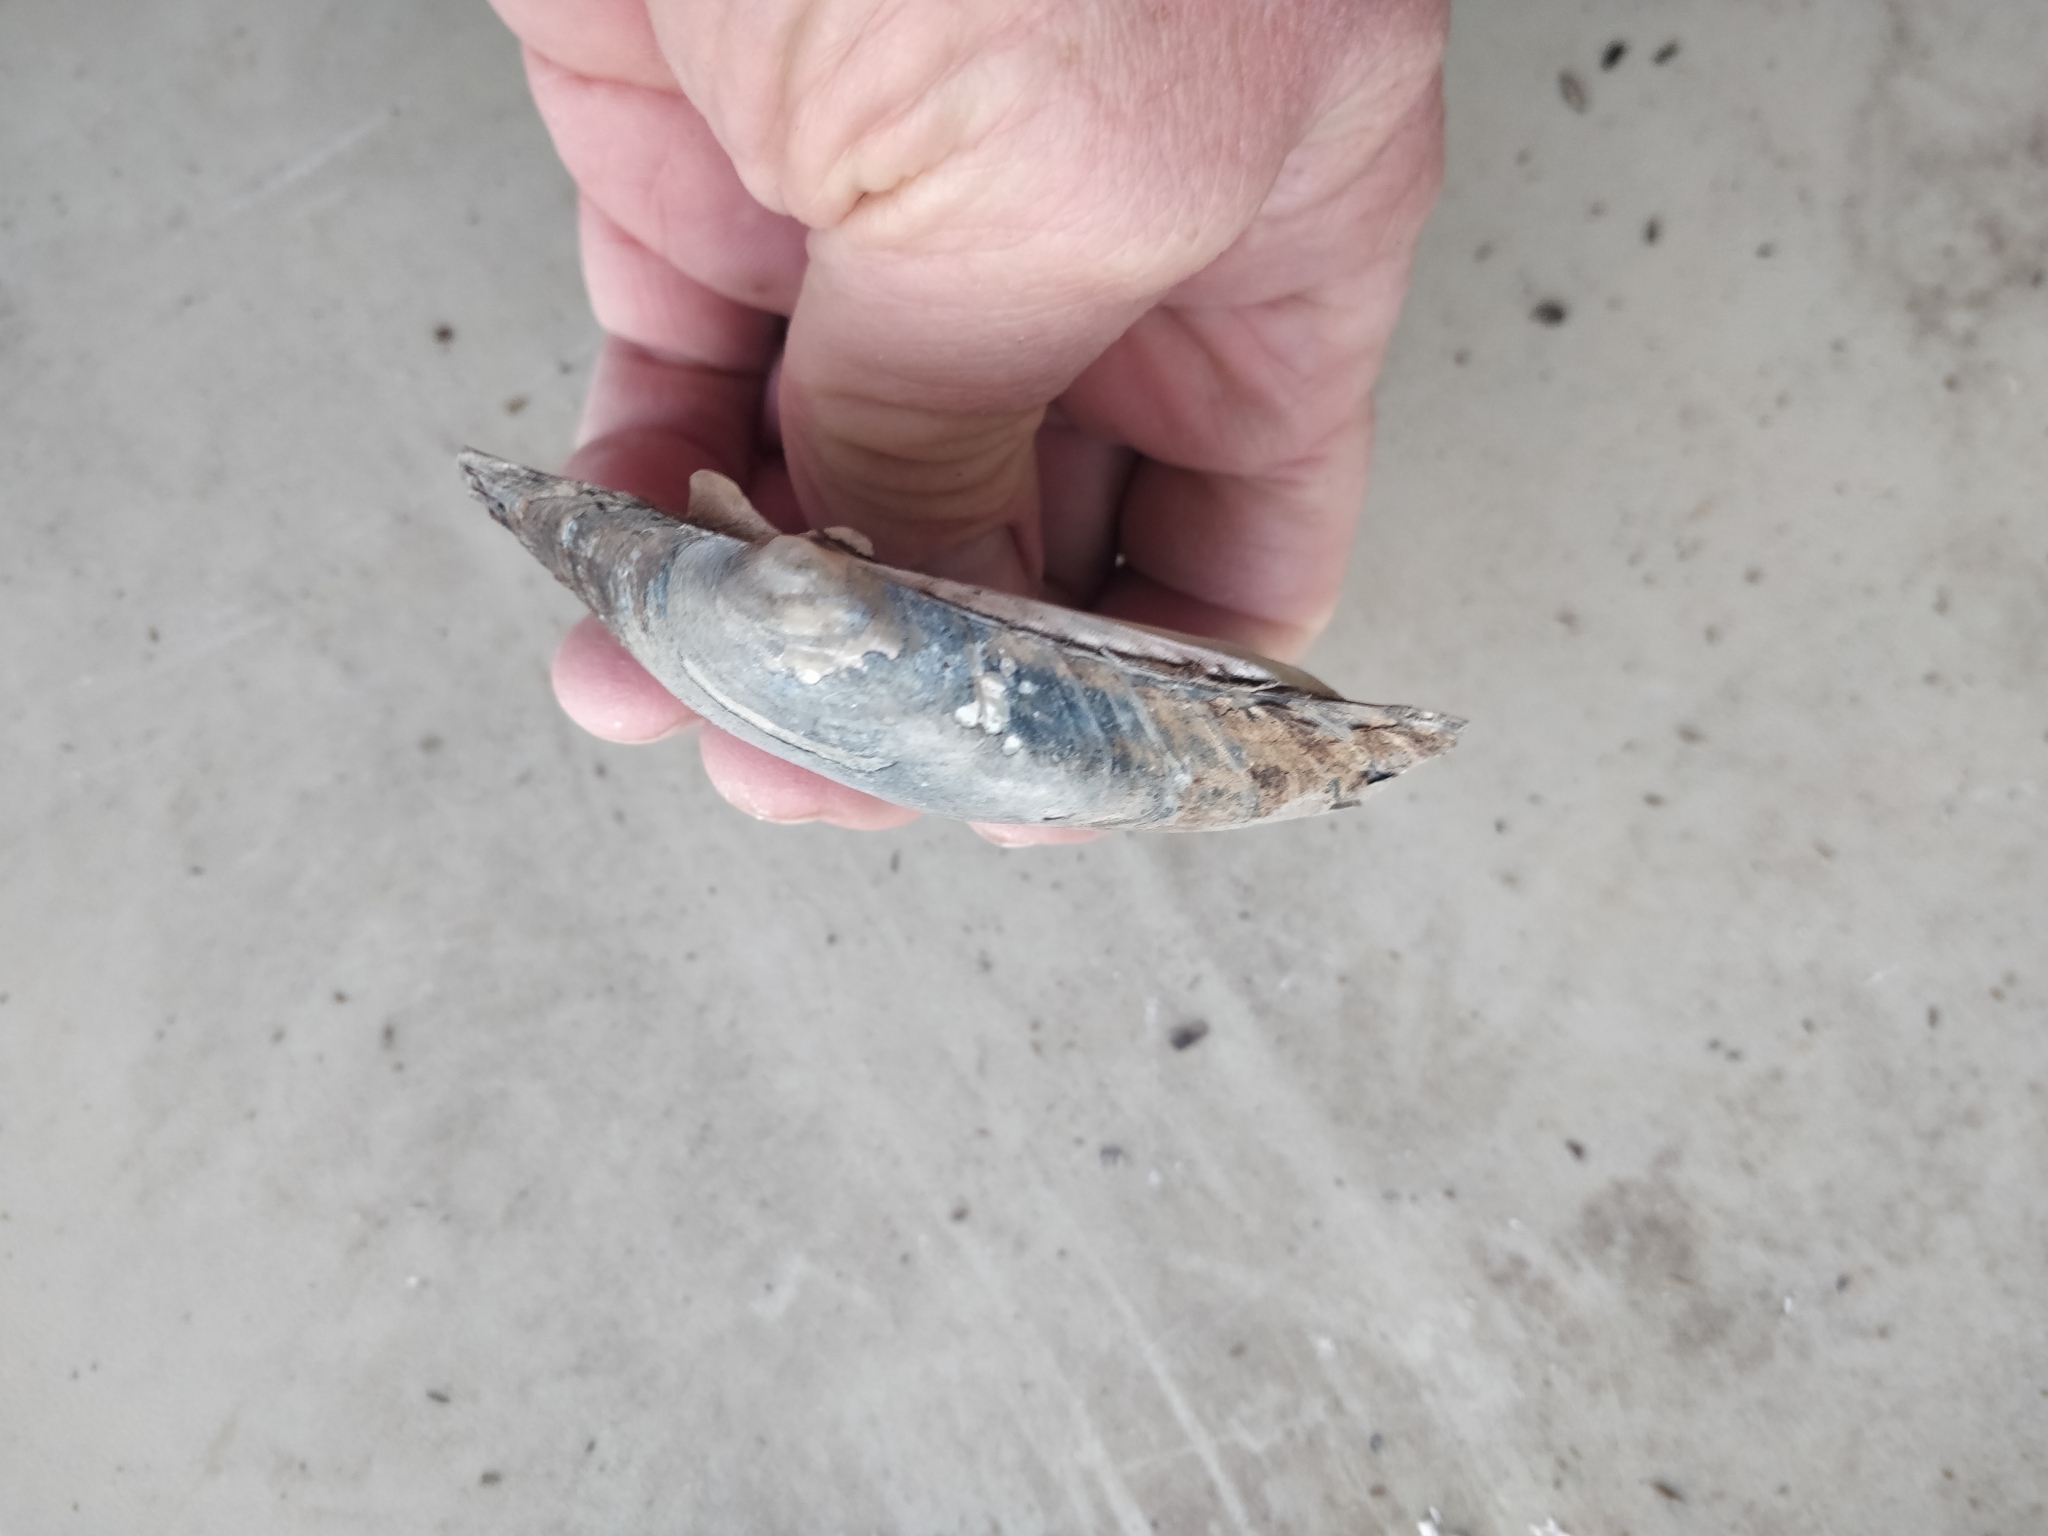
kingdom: Animalia
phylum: Mollusca
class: Bivalvia
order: Unionida
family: Unionidae
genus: Lampsilis
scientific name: Lampsilis cardium
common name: Plain pocketbook
